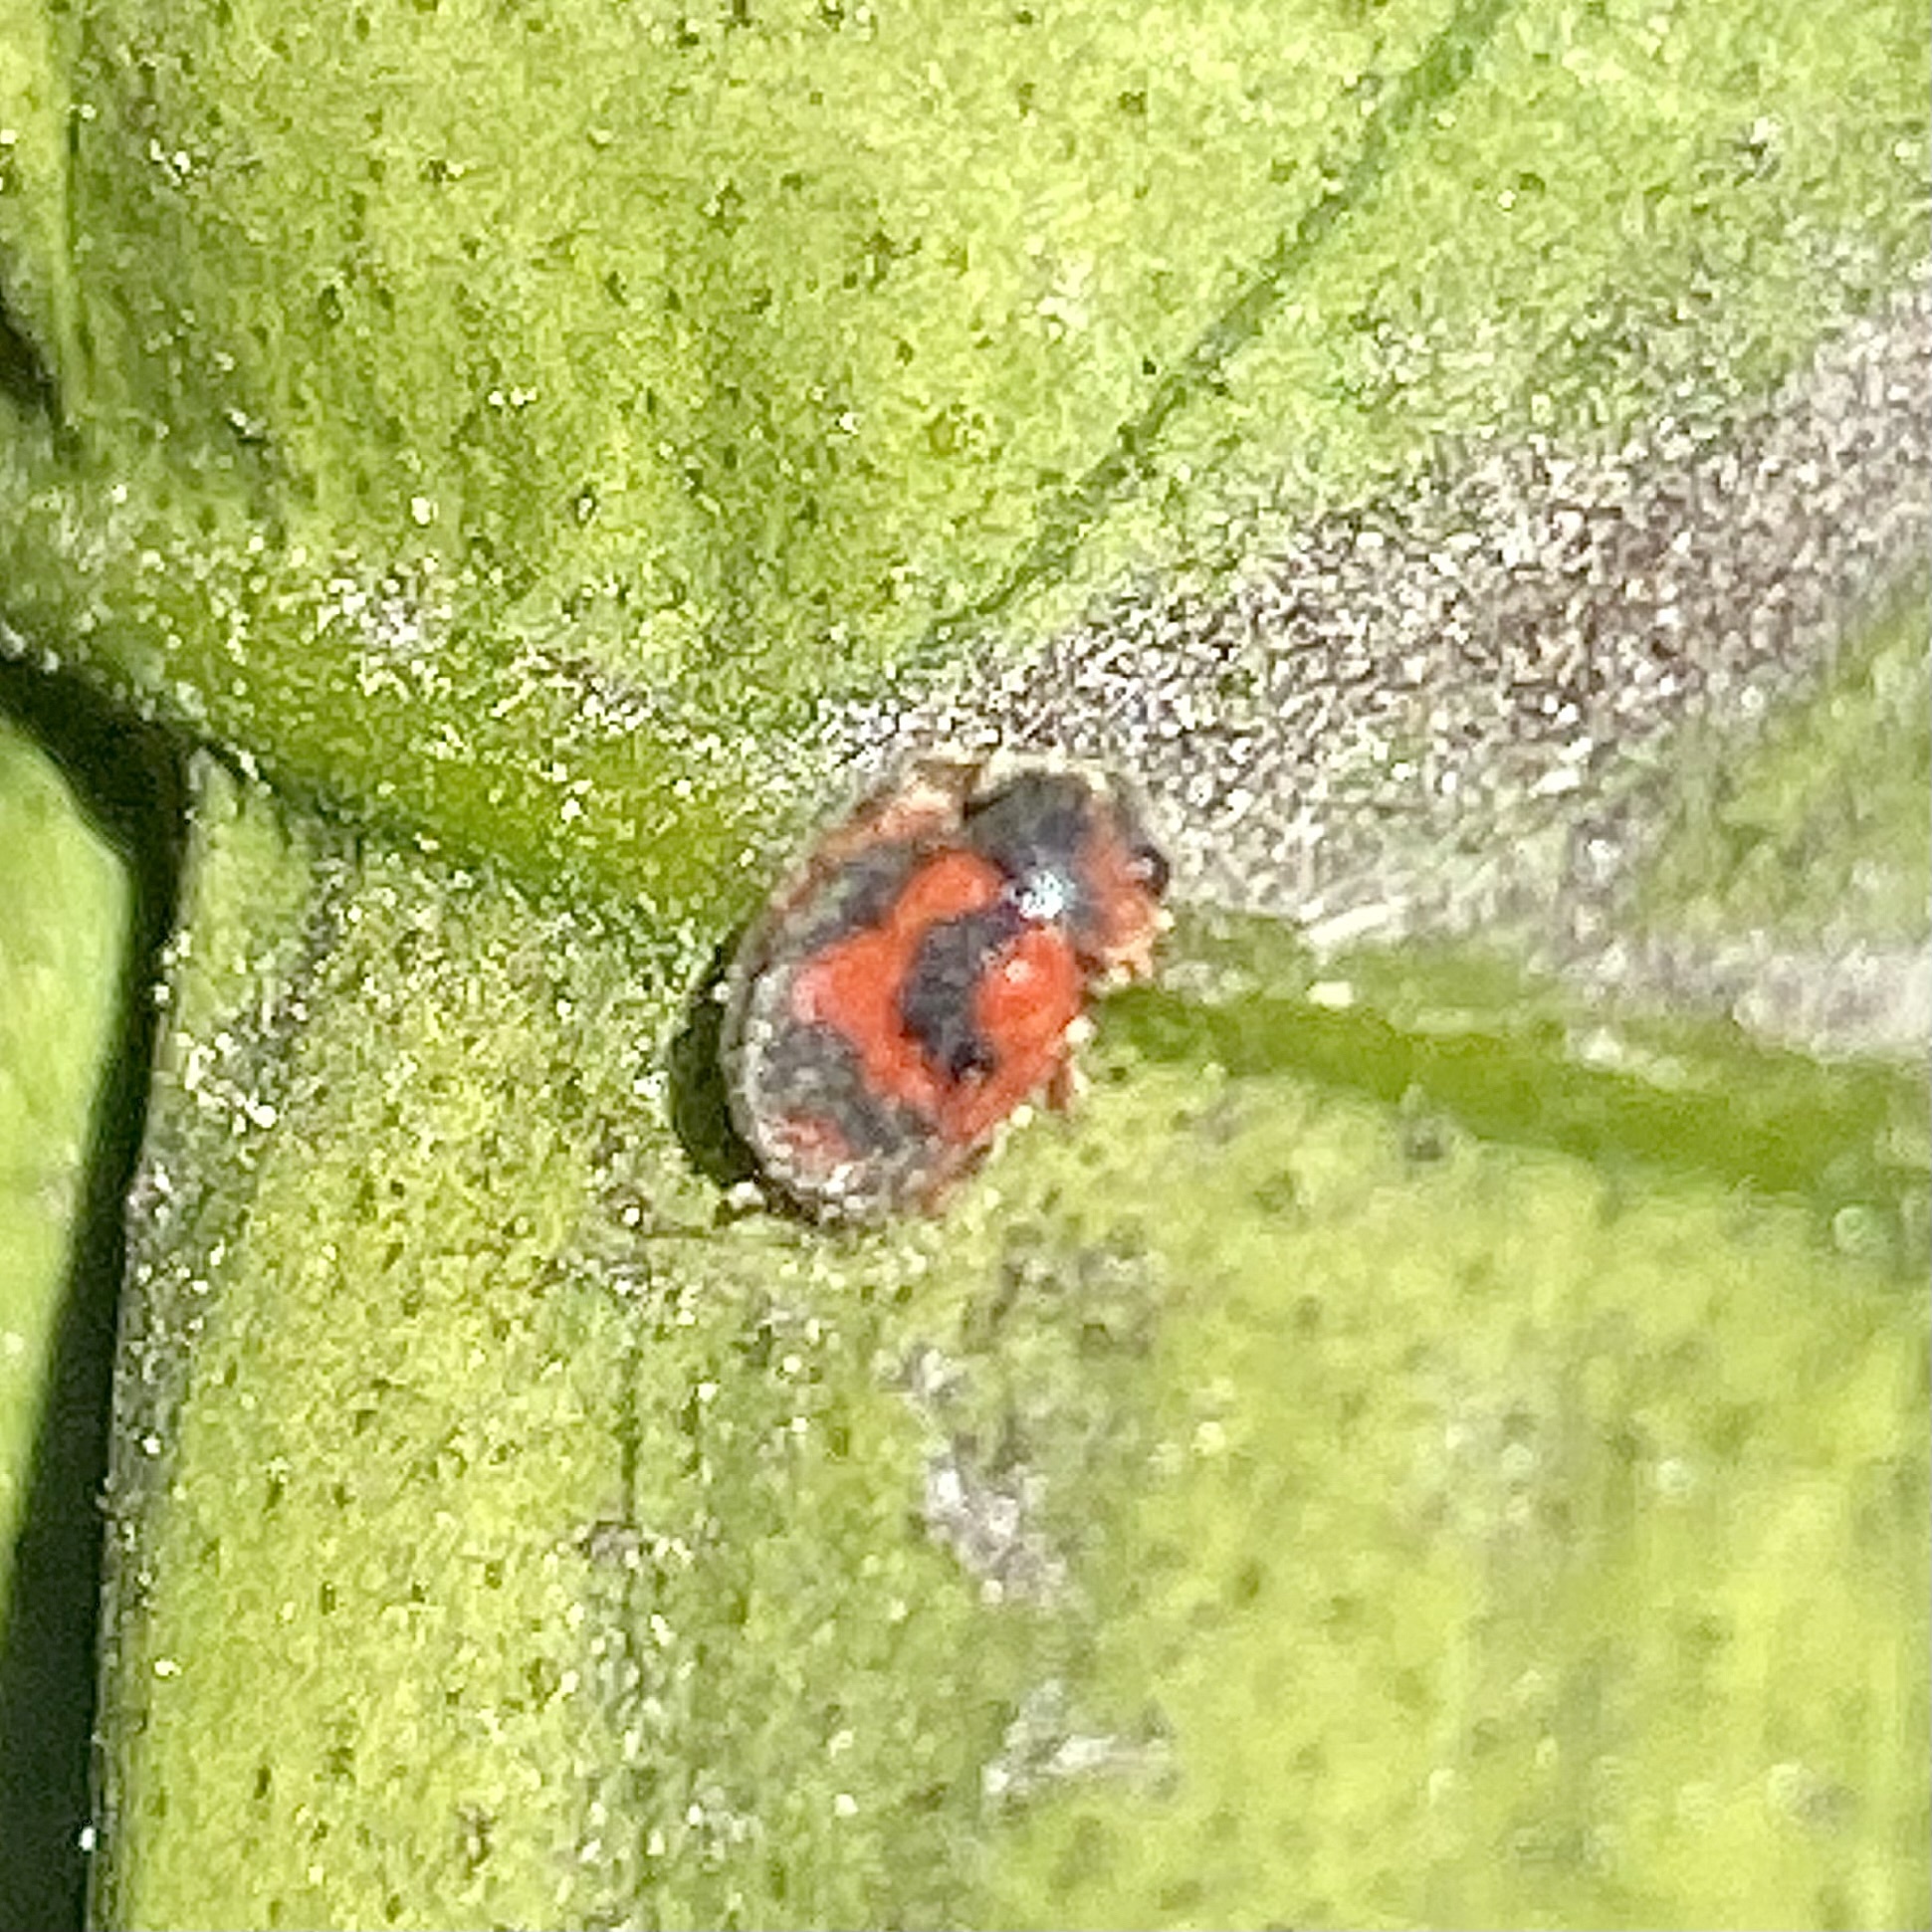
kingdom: Animalia
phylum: Arthropoda
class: Insecta
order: Coleoptera
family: Coccinellidae
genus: Novius
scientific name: Novius cardinalis
